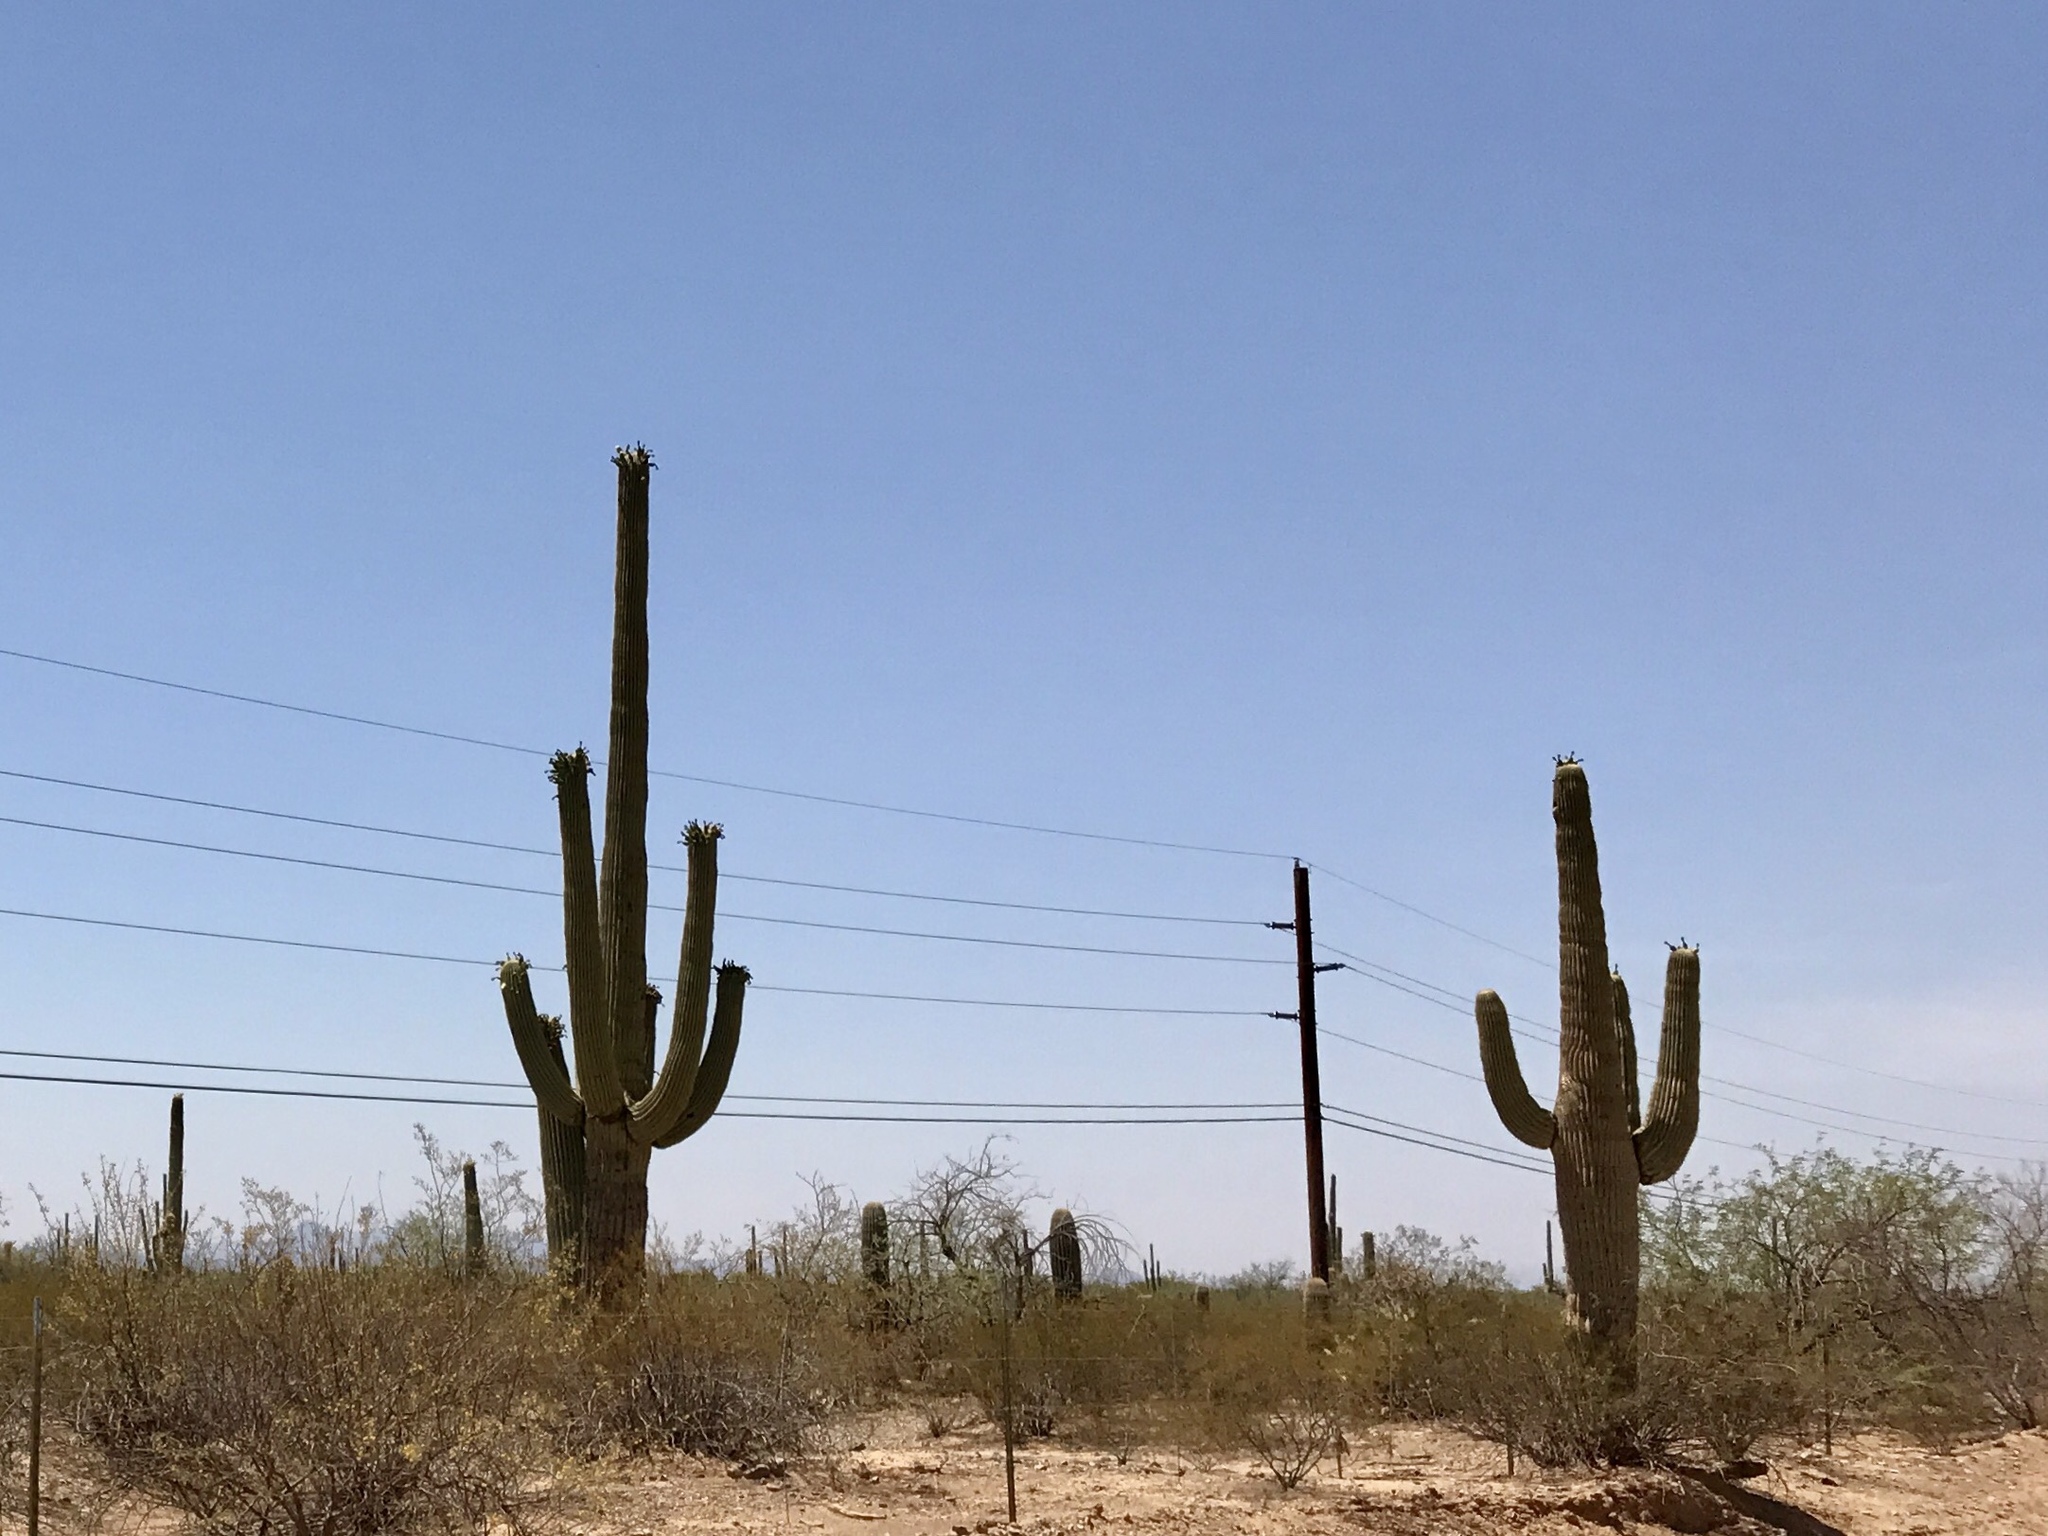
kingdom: Plantae
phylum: Tracheophyta
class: Magnoliopsida
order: Caryophyllales
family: Cactaceae
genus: Carnegiea
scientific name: Carnegiea gigantea
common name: Saguaro
